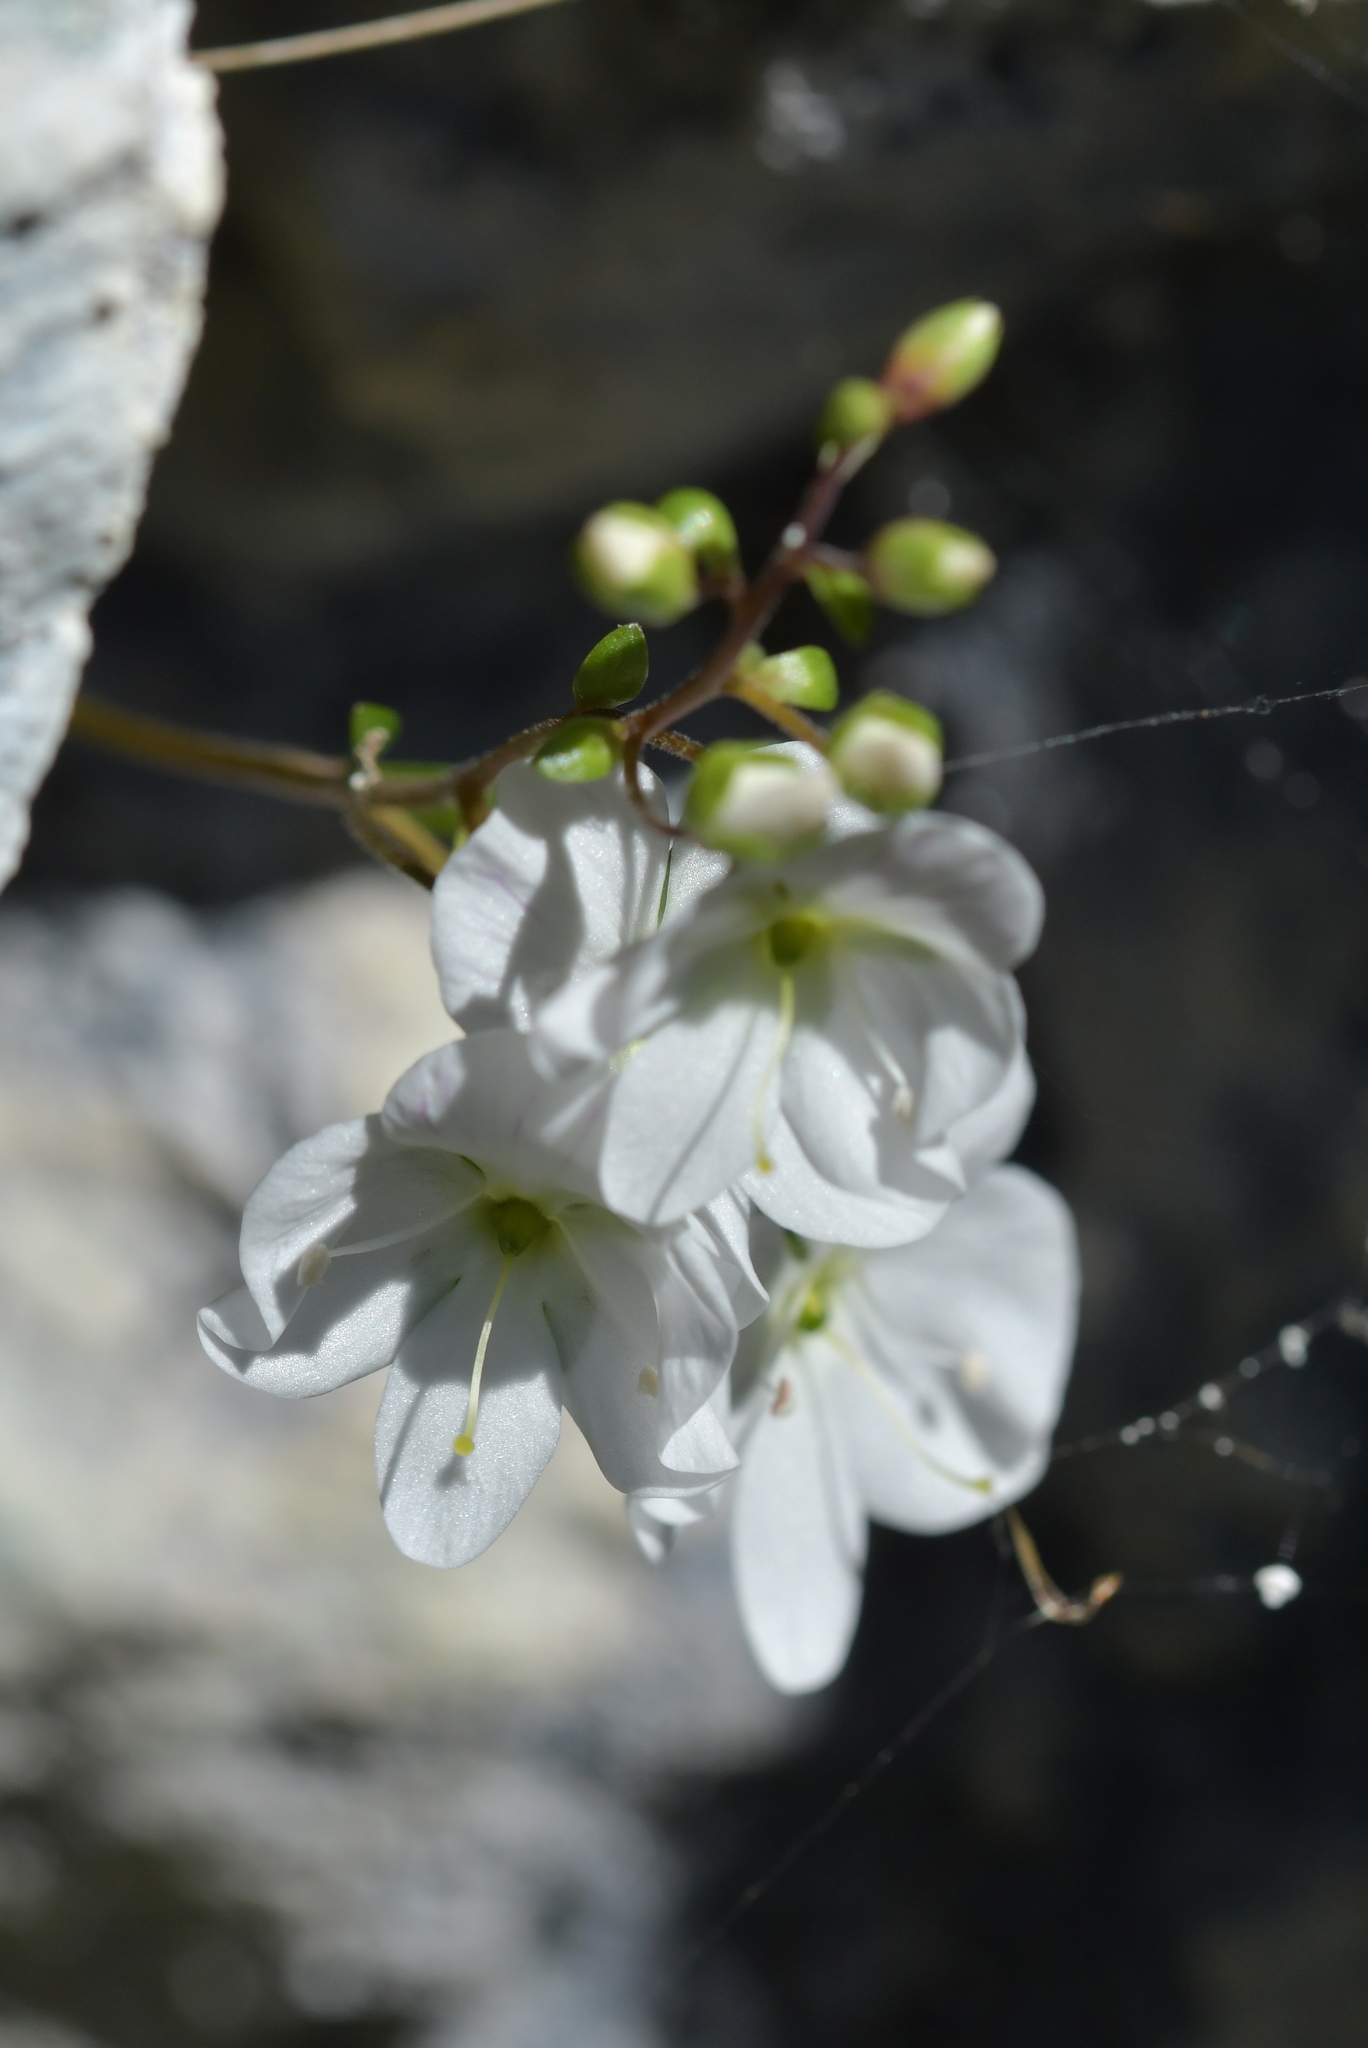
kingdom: Plantae
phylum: Tracheophyta
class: Magnoliopsida
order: Lamiales
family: Plantaginaceae
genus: Veronica
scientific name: Veronica lyallii
